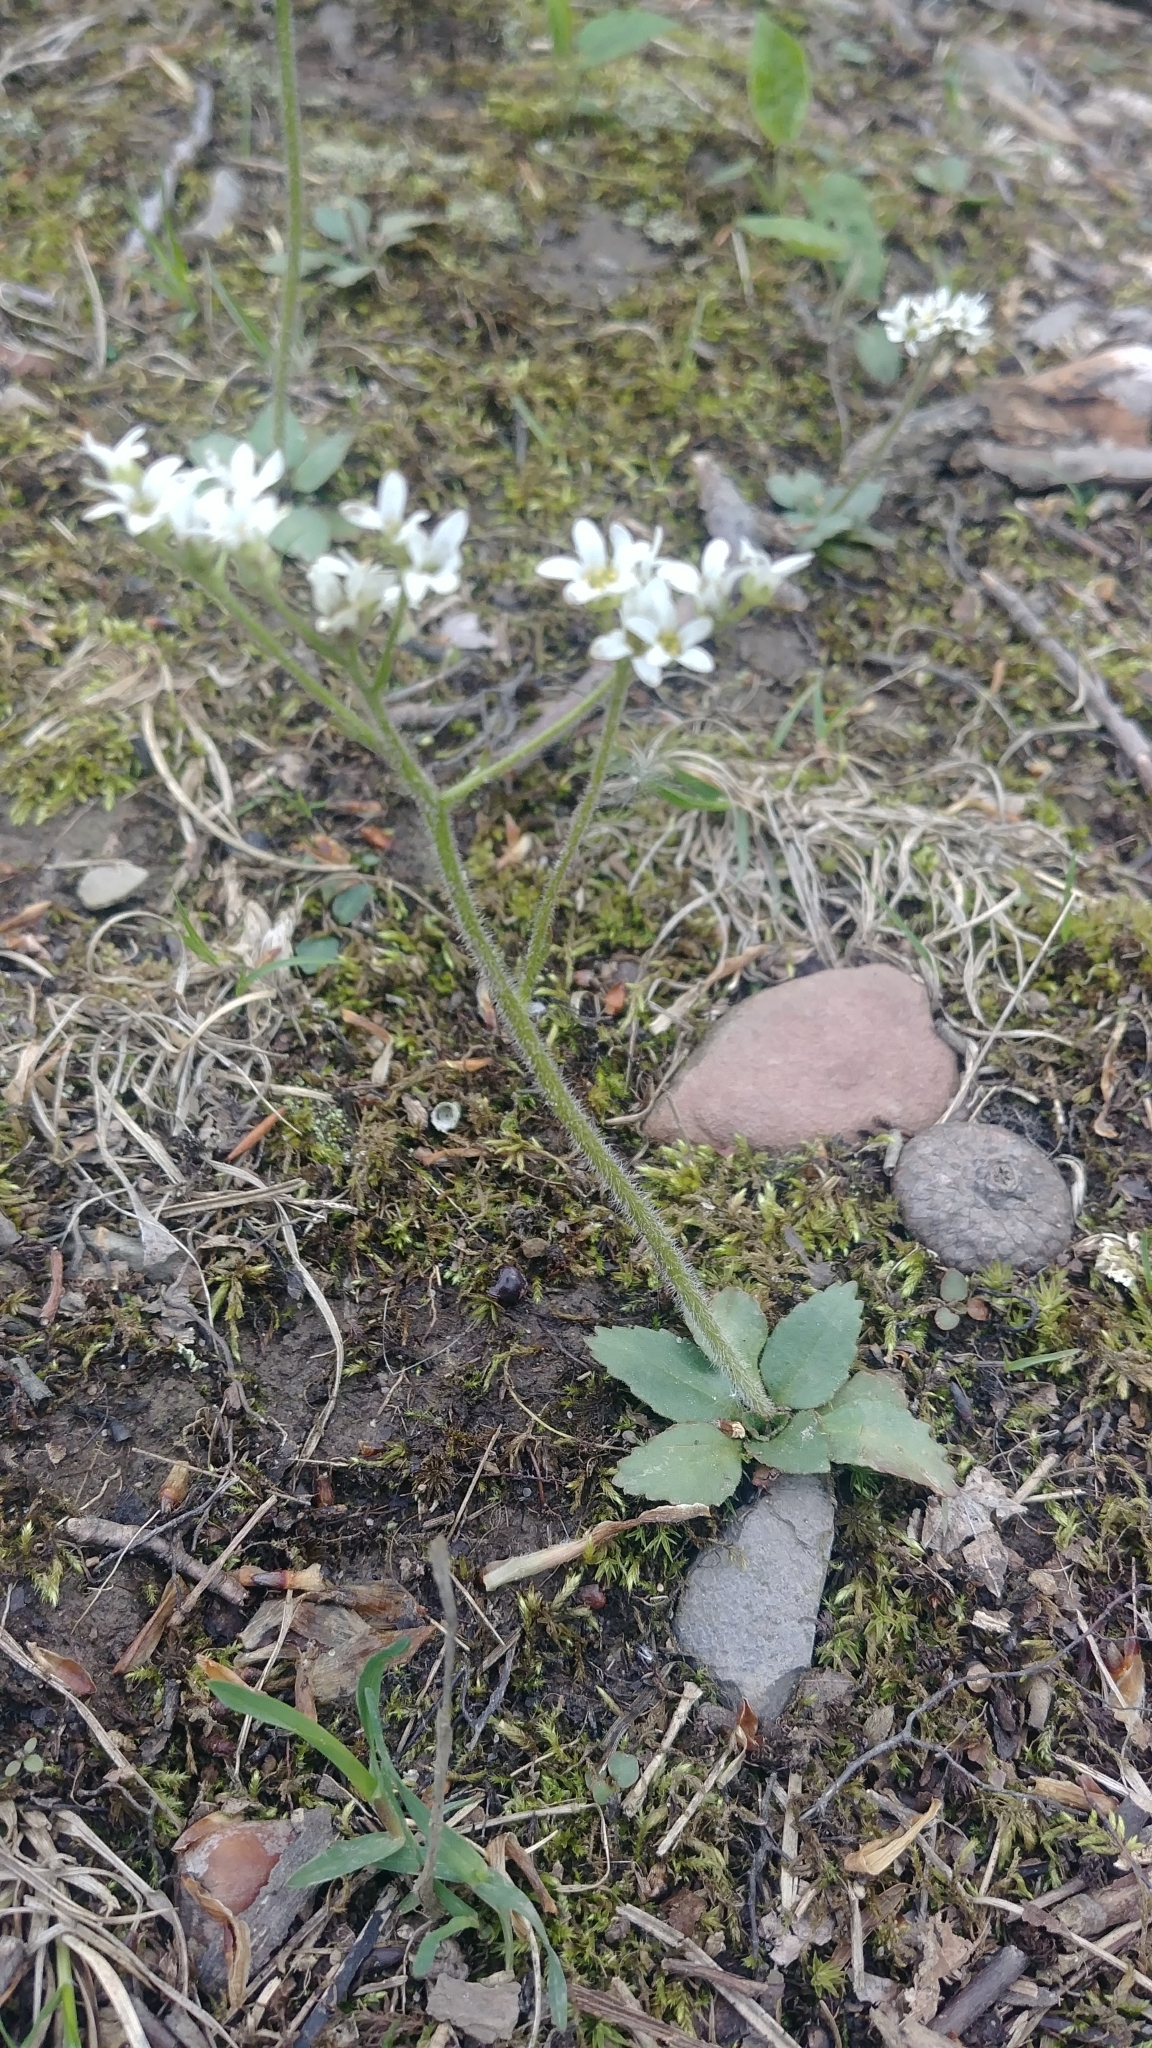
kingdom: Plantae
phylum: Tracheophyta
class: Magnoliopsida
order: Saxifragales
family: Saxifragaceae
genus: Micranthes
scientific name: Micranthes virginiensis
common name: Early saxifrage
